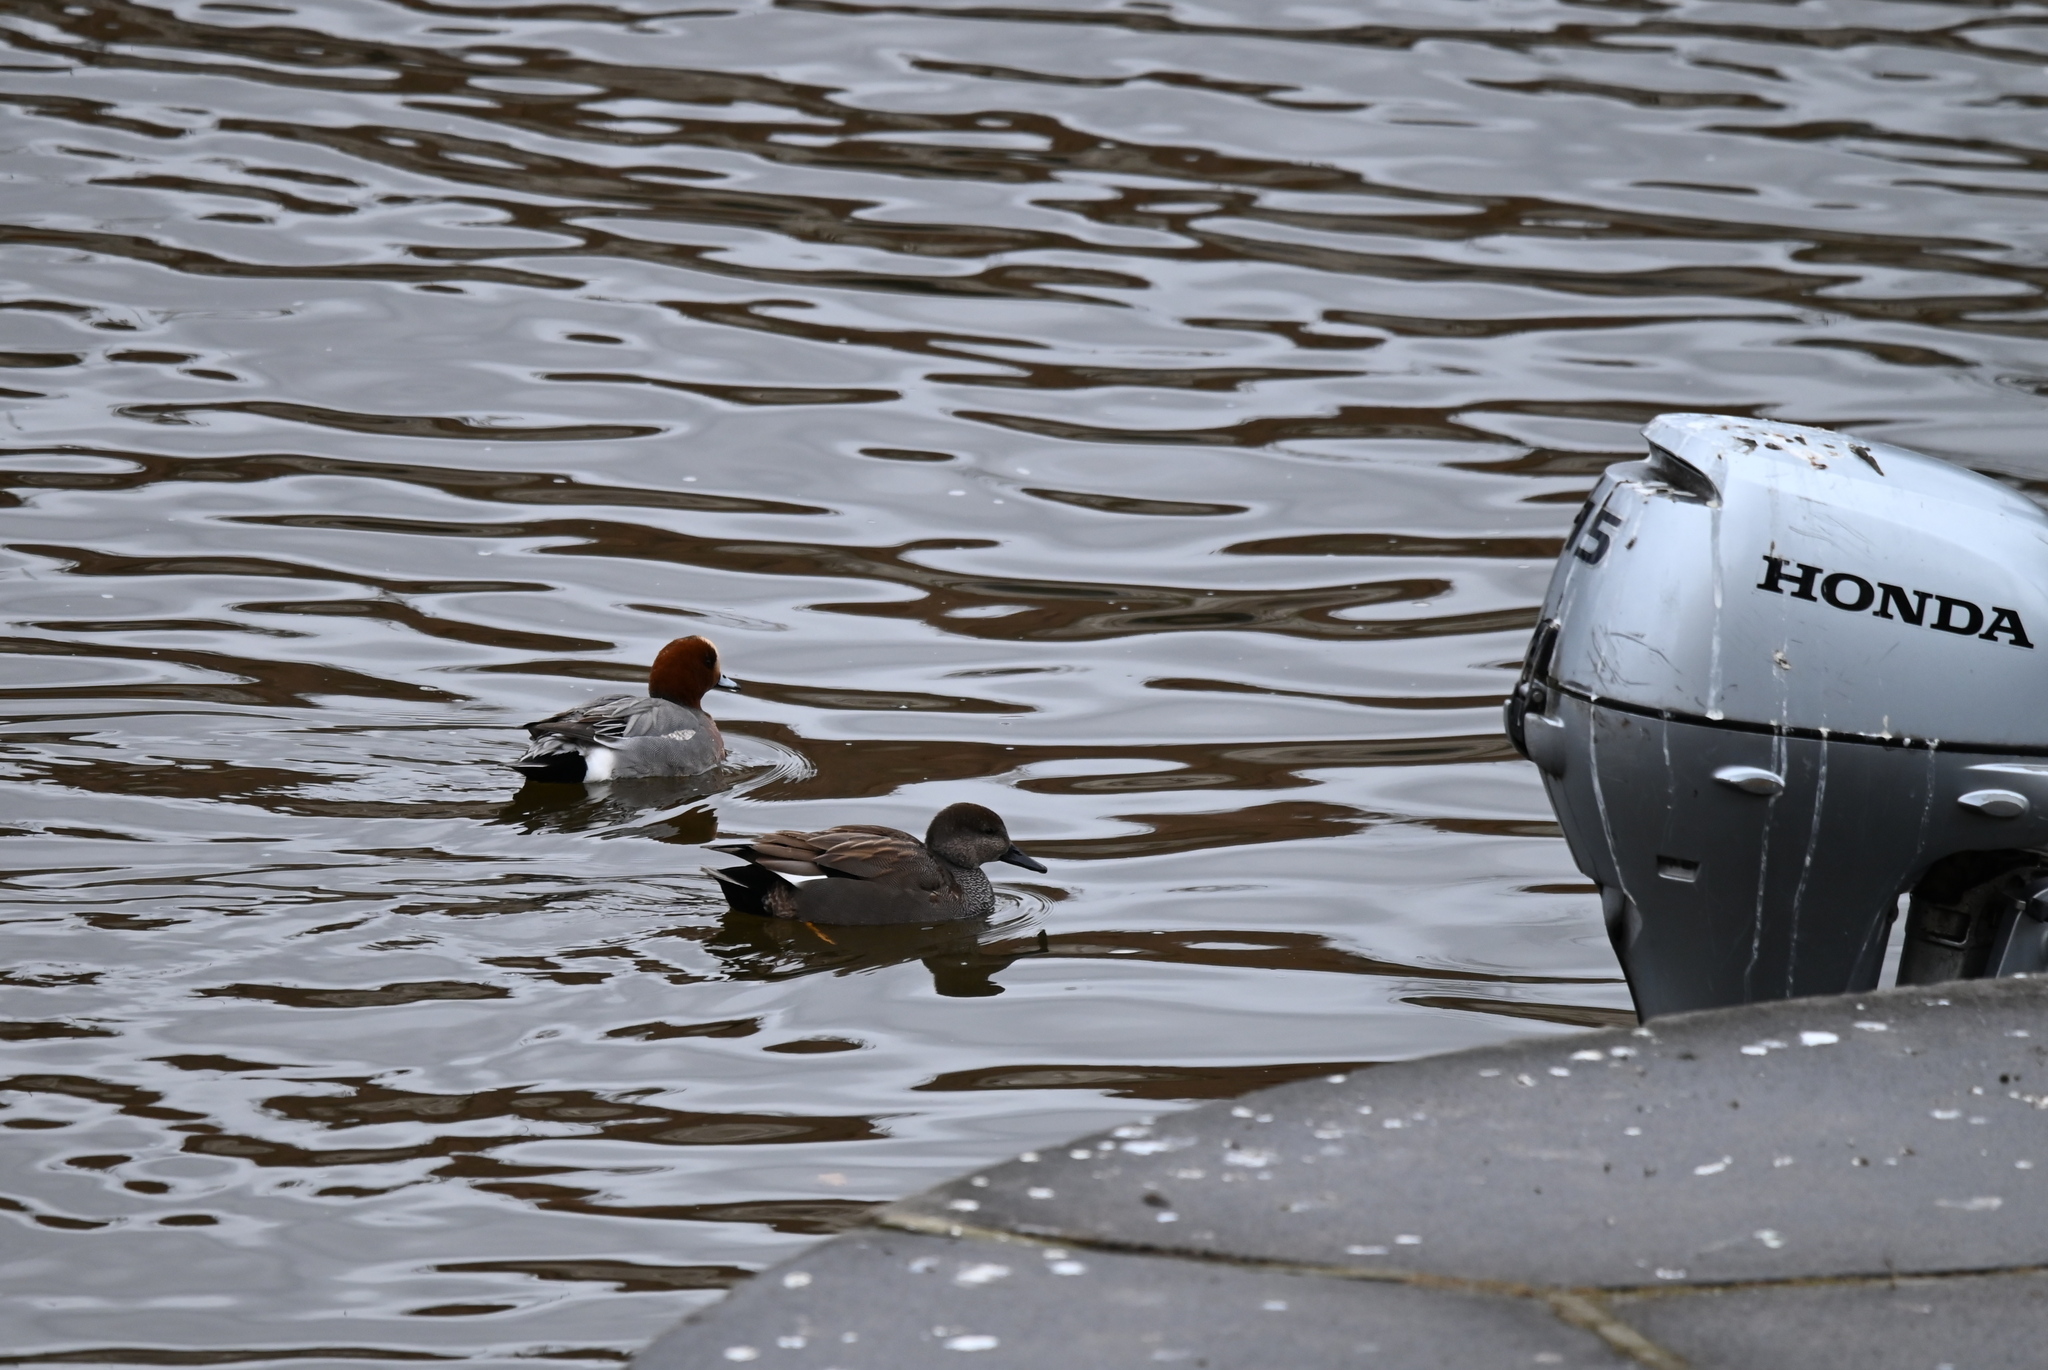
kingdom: Animalia
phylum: Chordata
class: Aves
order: Anseriformes
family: Anatidae
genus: Mareca
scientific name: Mareca penelope
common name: Eurasian wigeon
